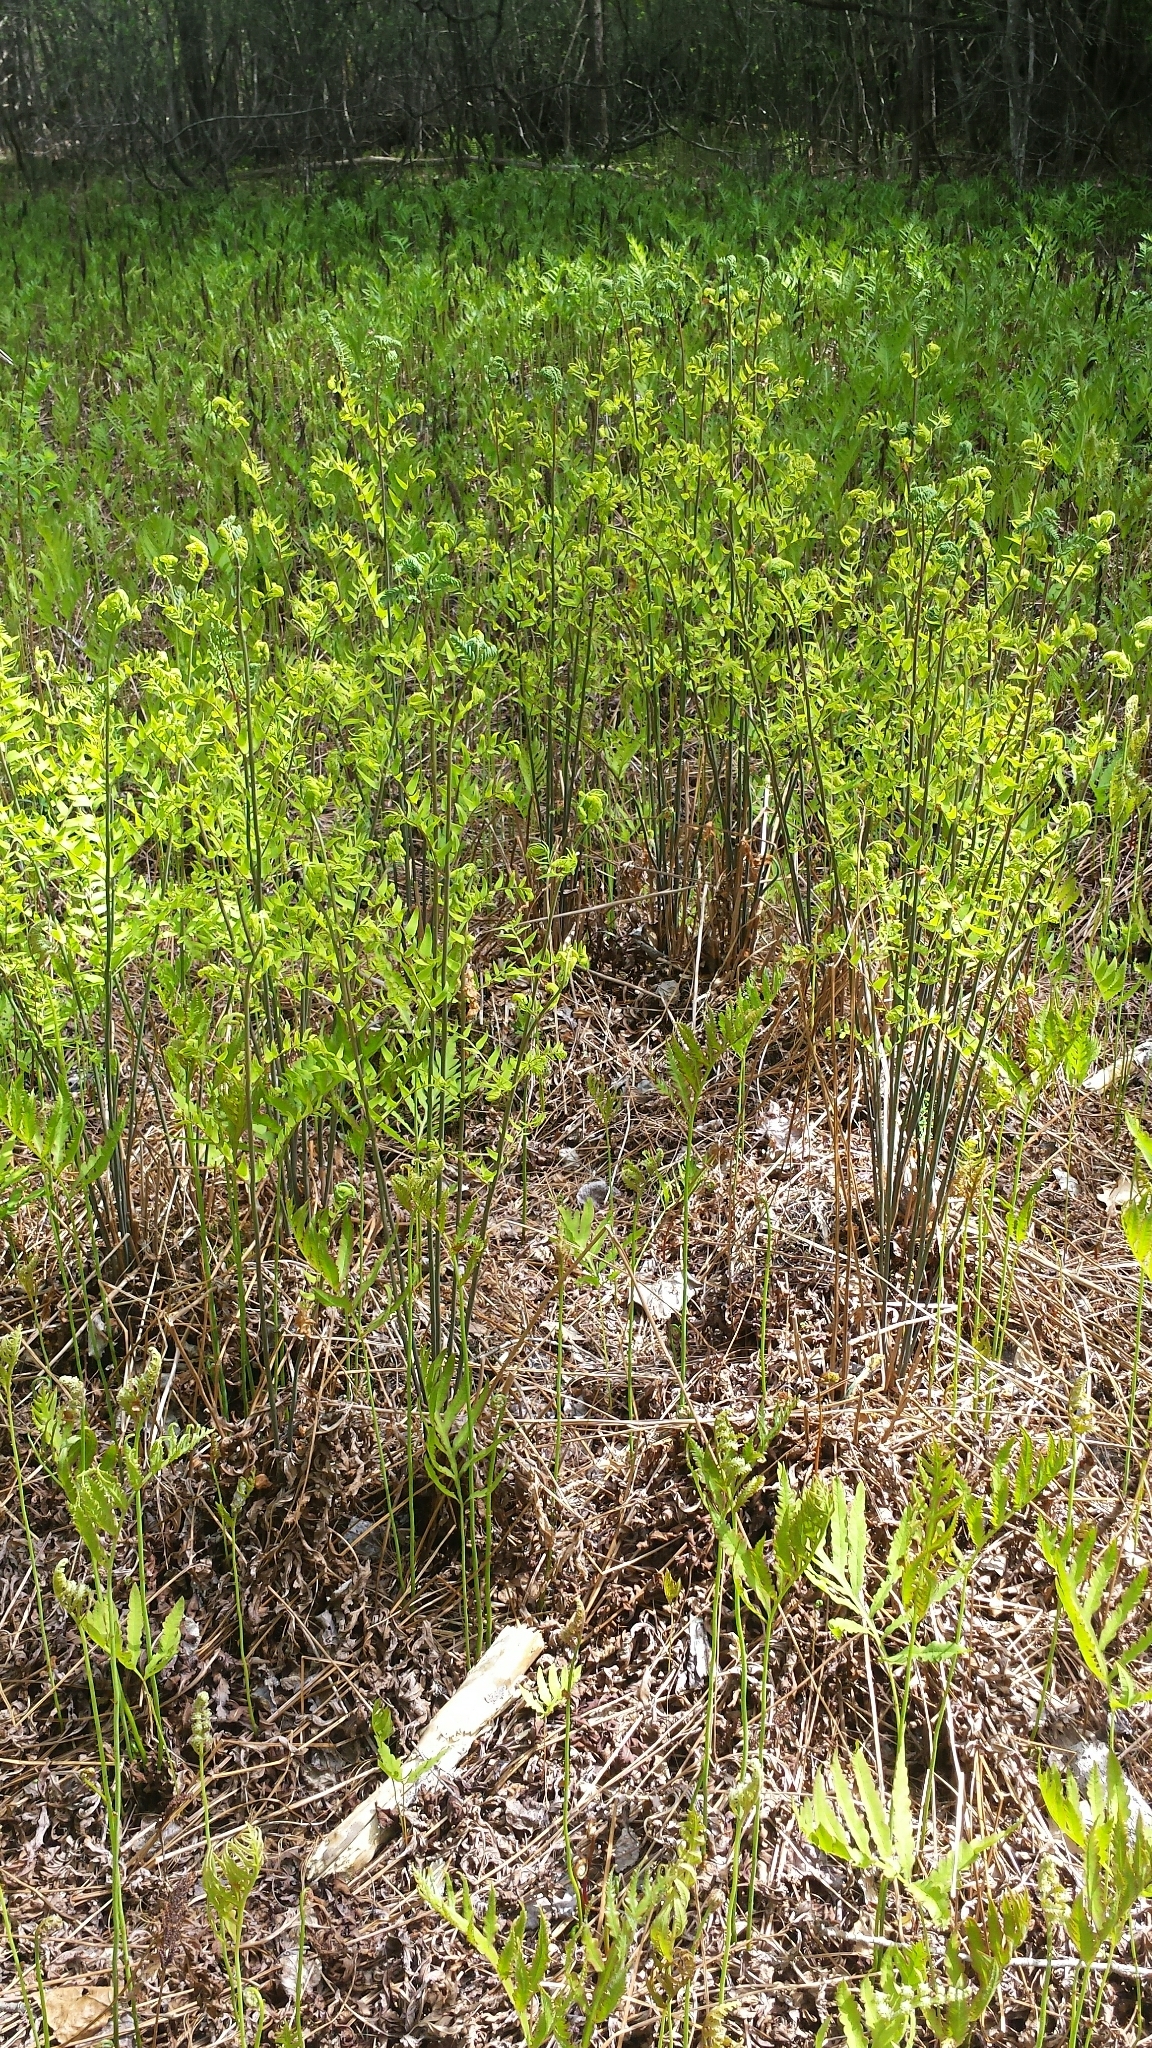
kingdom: Plantae
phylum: Tracheophyta
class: Polypodiopsida
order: Osmundales
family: Osmundaceae
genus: Osmunda
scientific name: Osmunda spectabilis
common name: American royal fern
